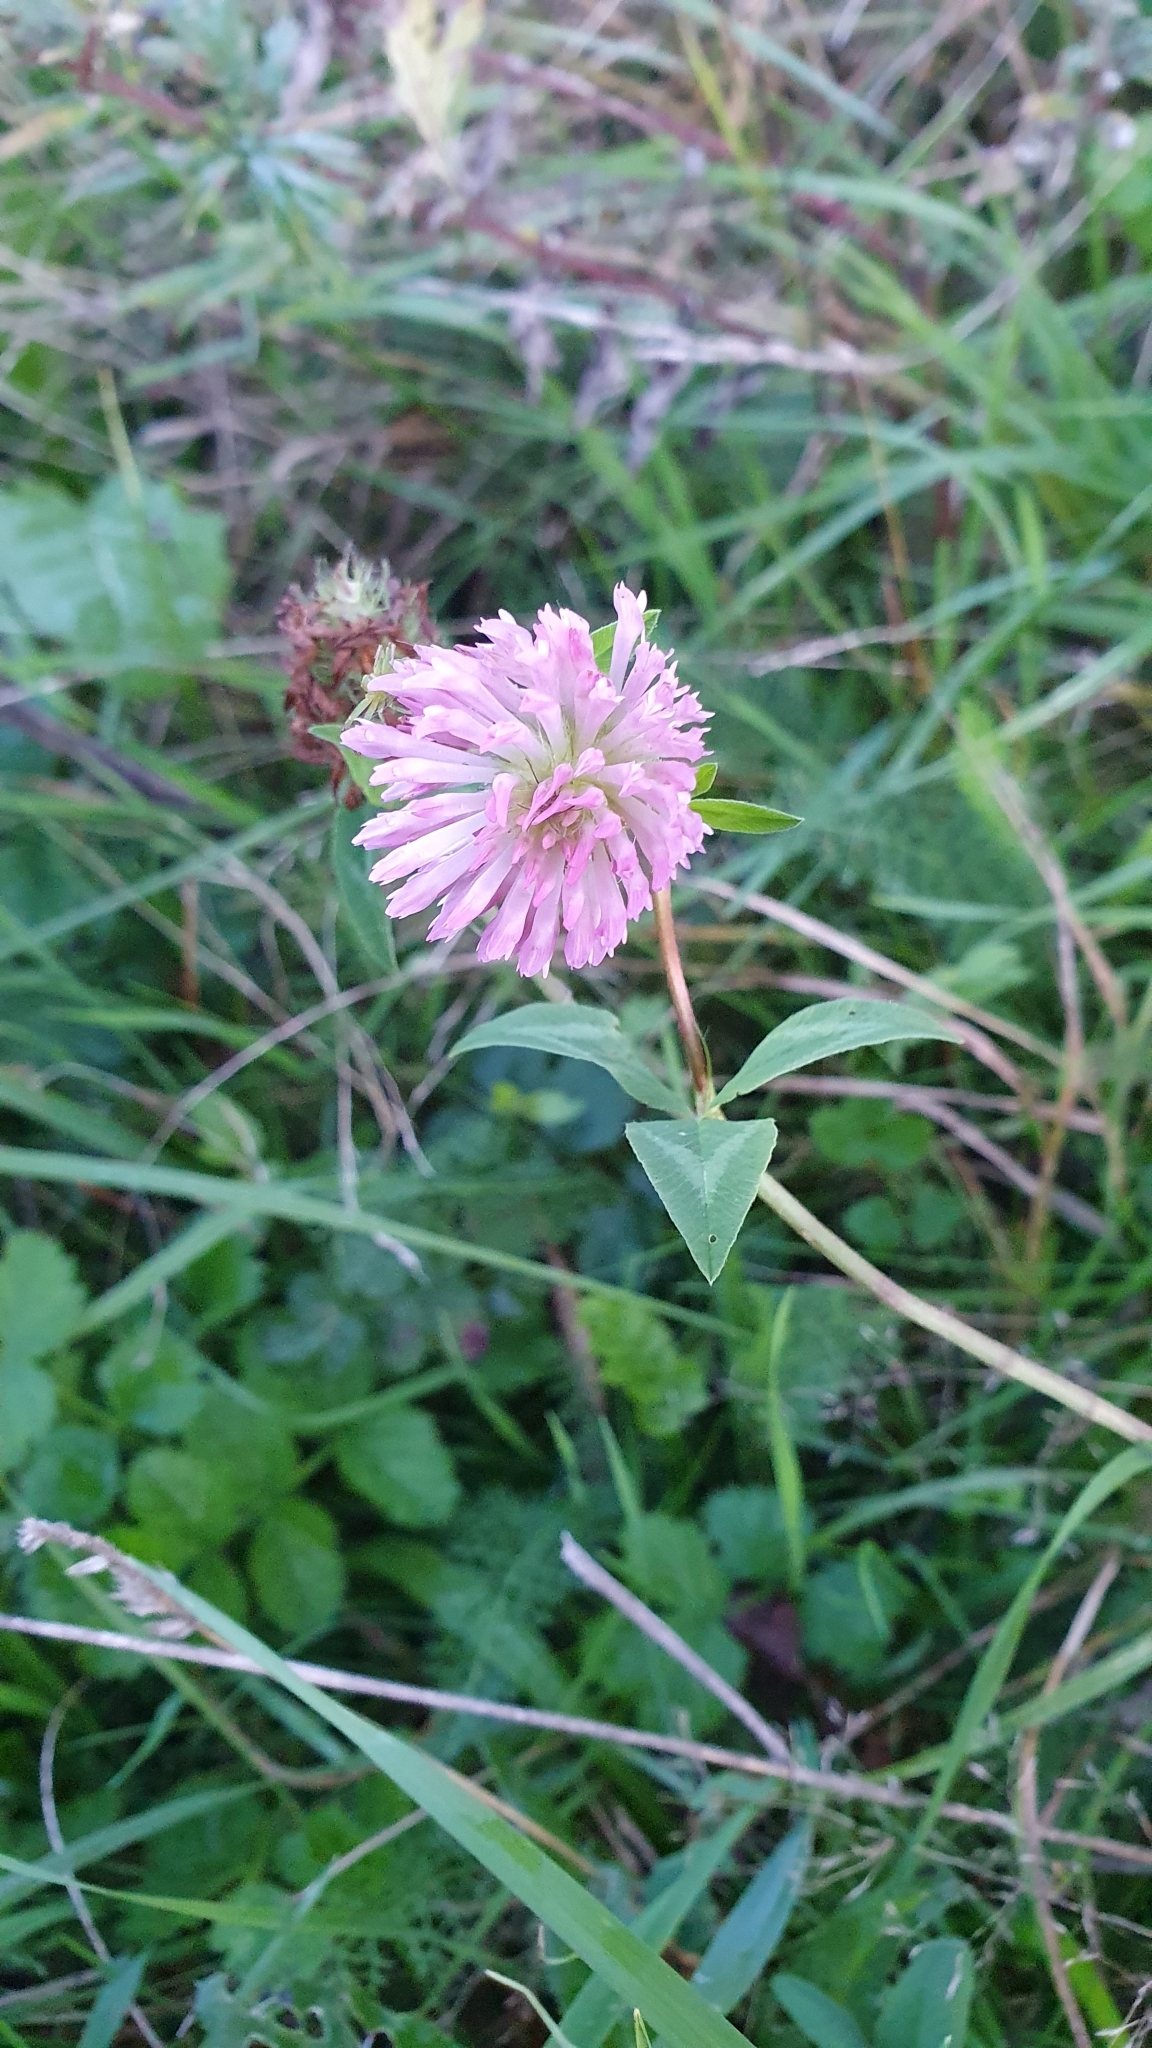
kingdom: Plantae
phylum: Tracheophyta
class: Magnoliopsida
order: Fabales
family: Fabaceae
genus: Trifolium
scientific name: Trifolium pratense
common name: Red clover
